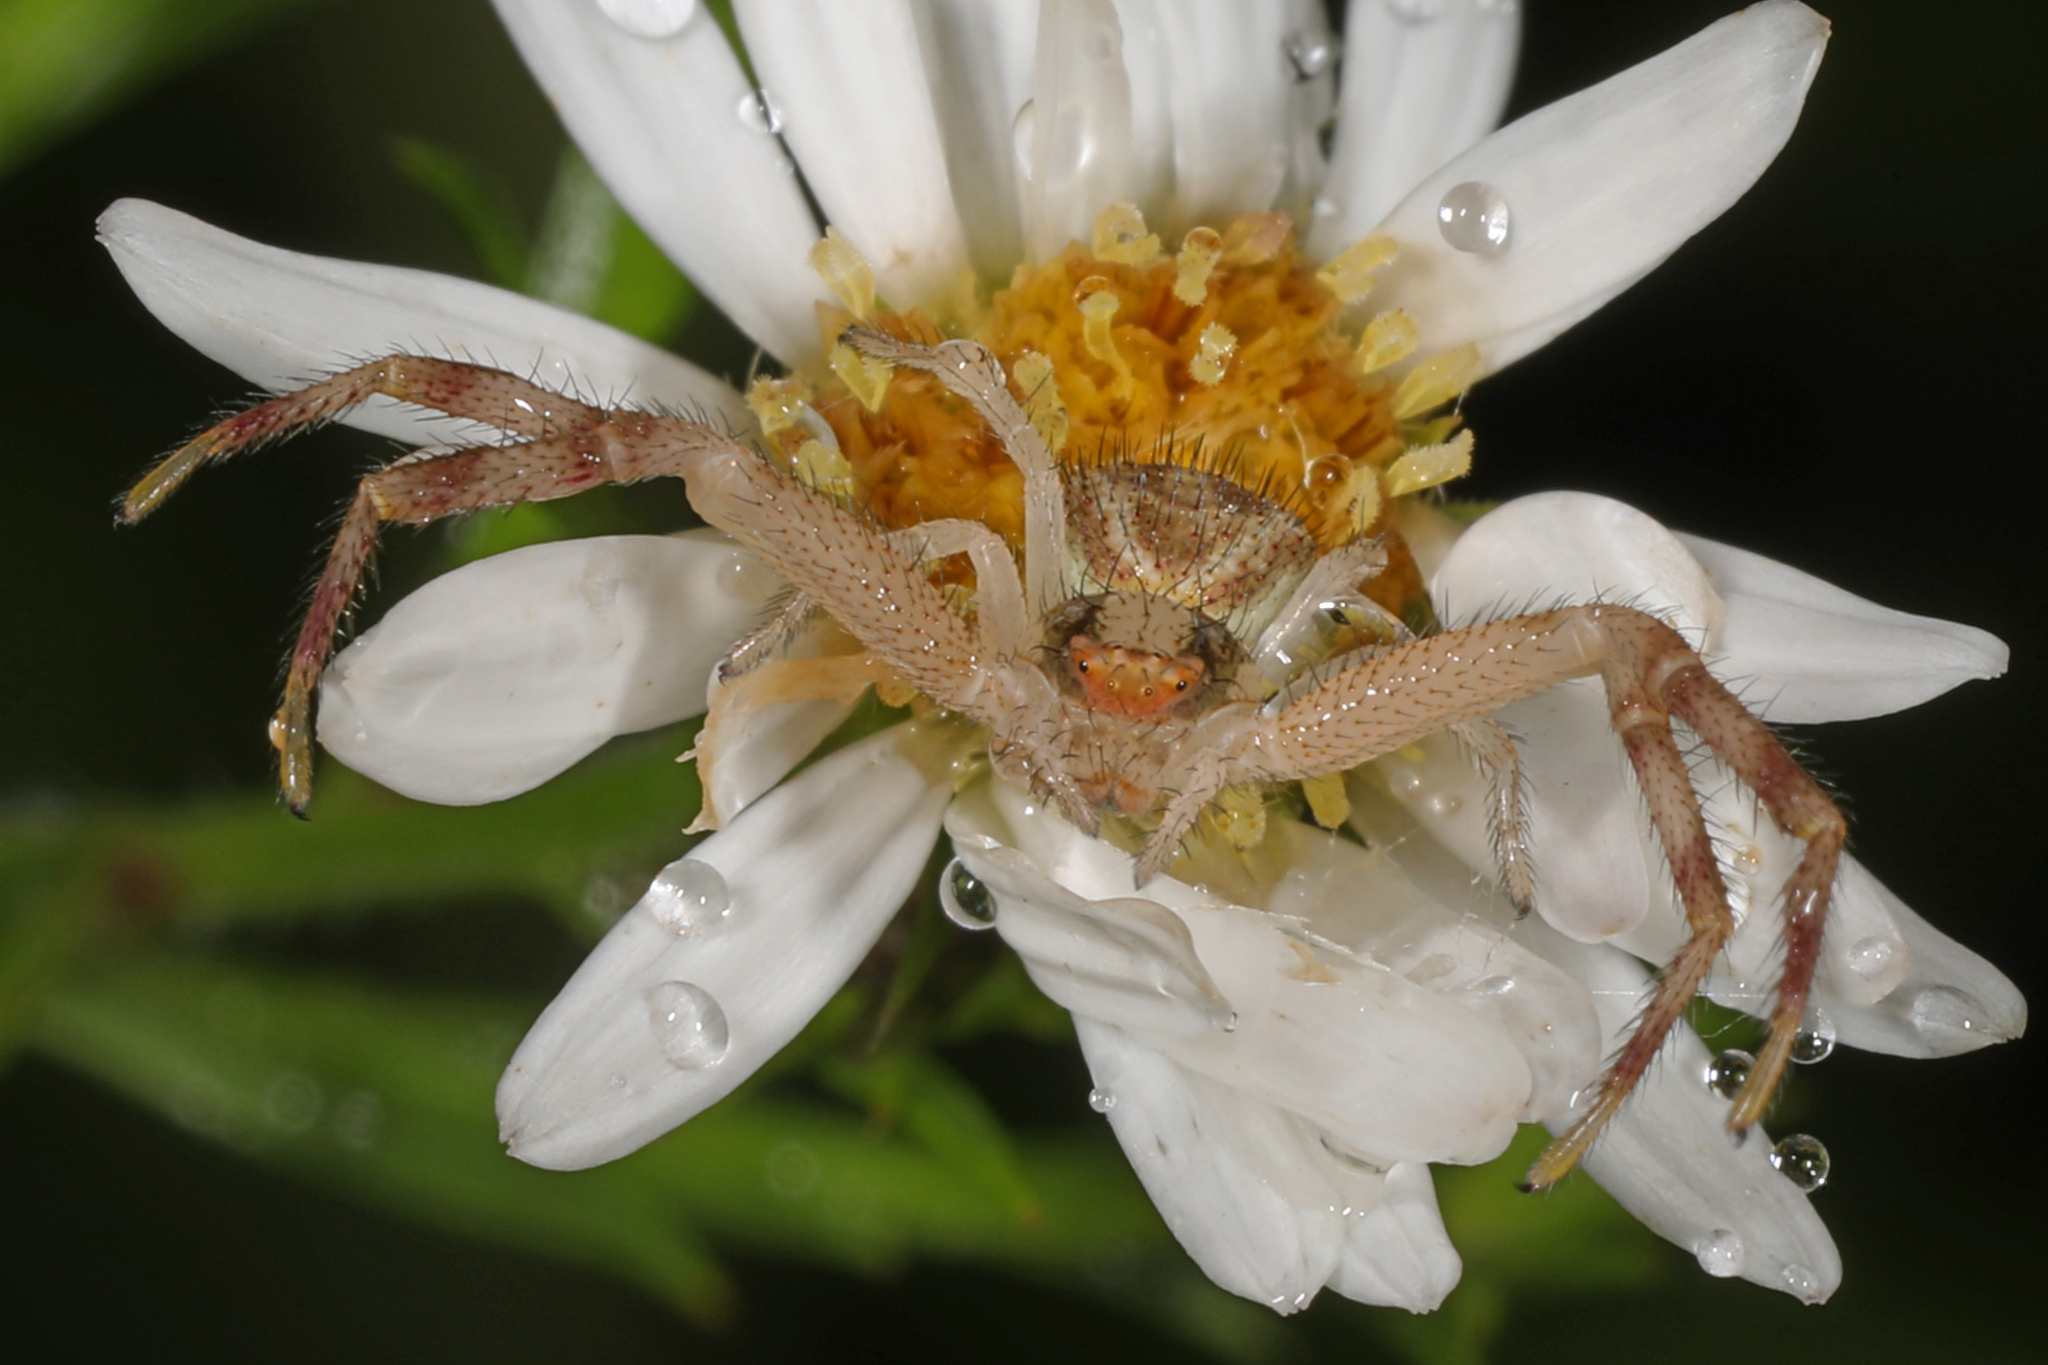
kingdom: Animalia
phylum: Arthropoda
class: Arachnida
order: Araneae
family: Thomisidae
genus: Mecaphesa
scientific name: Mecaphesa asperata
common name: Crab spiders
